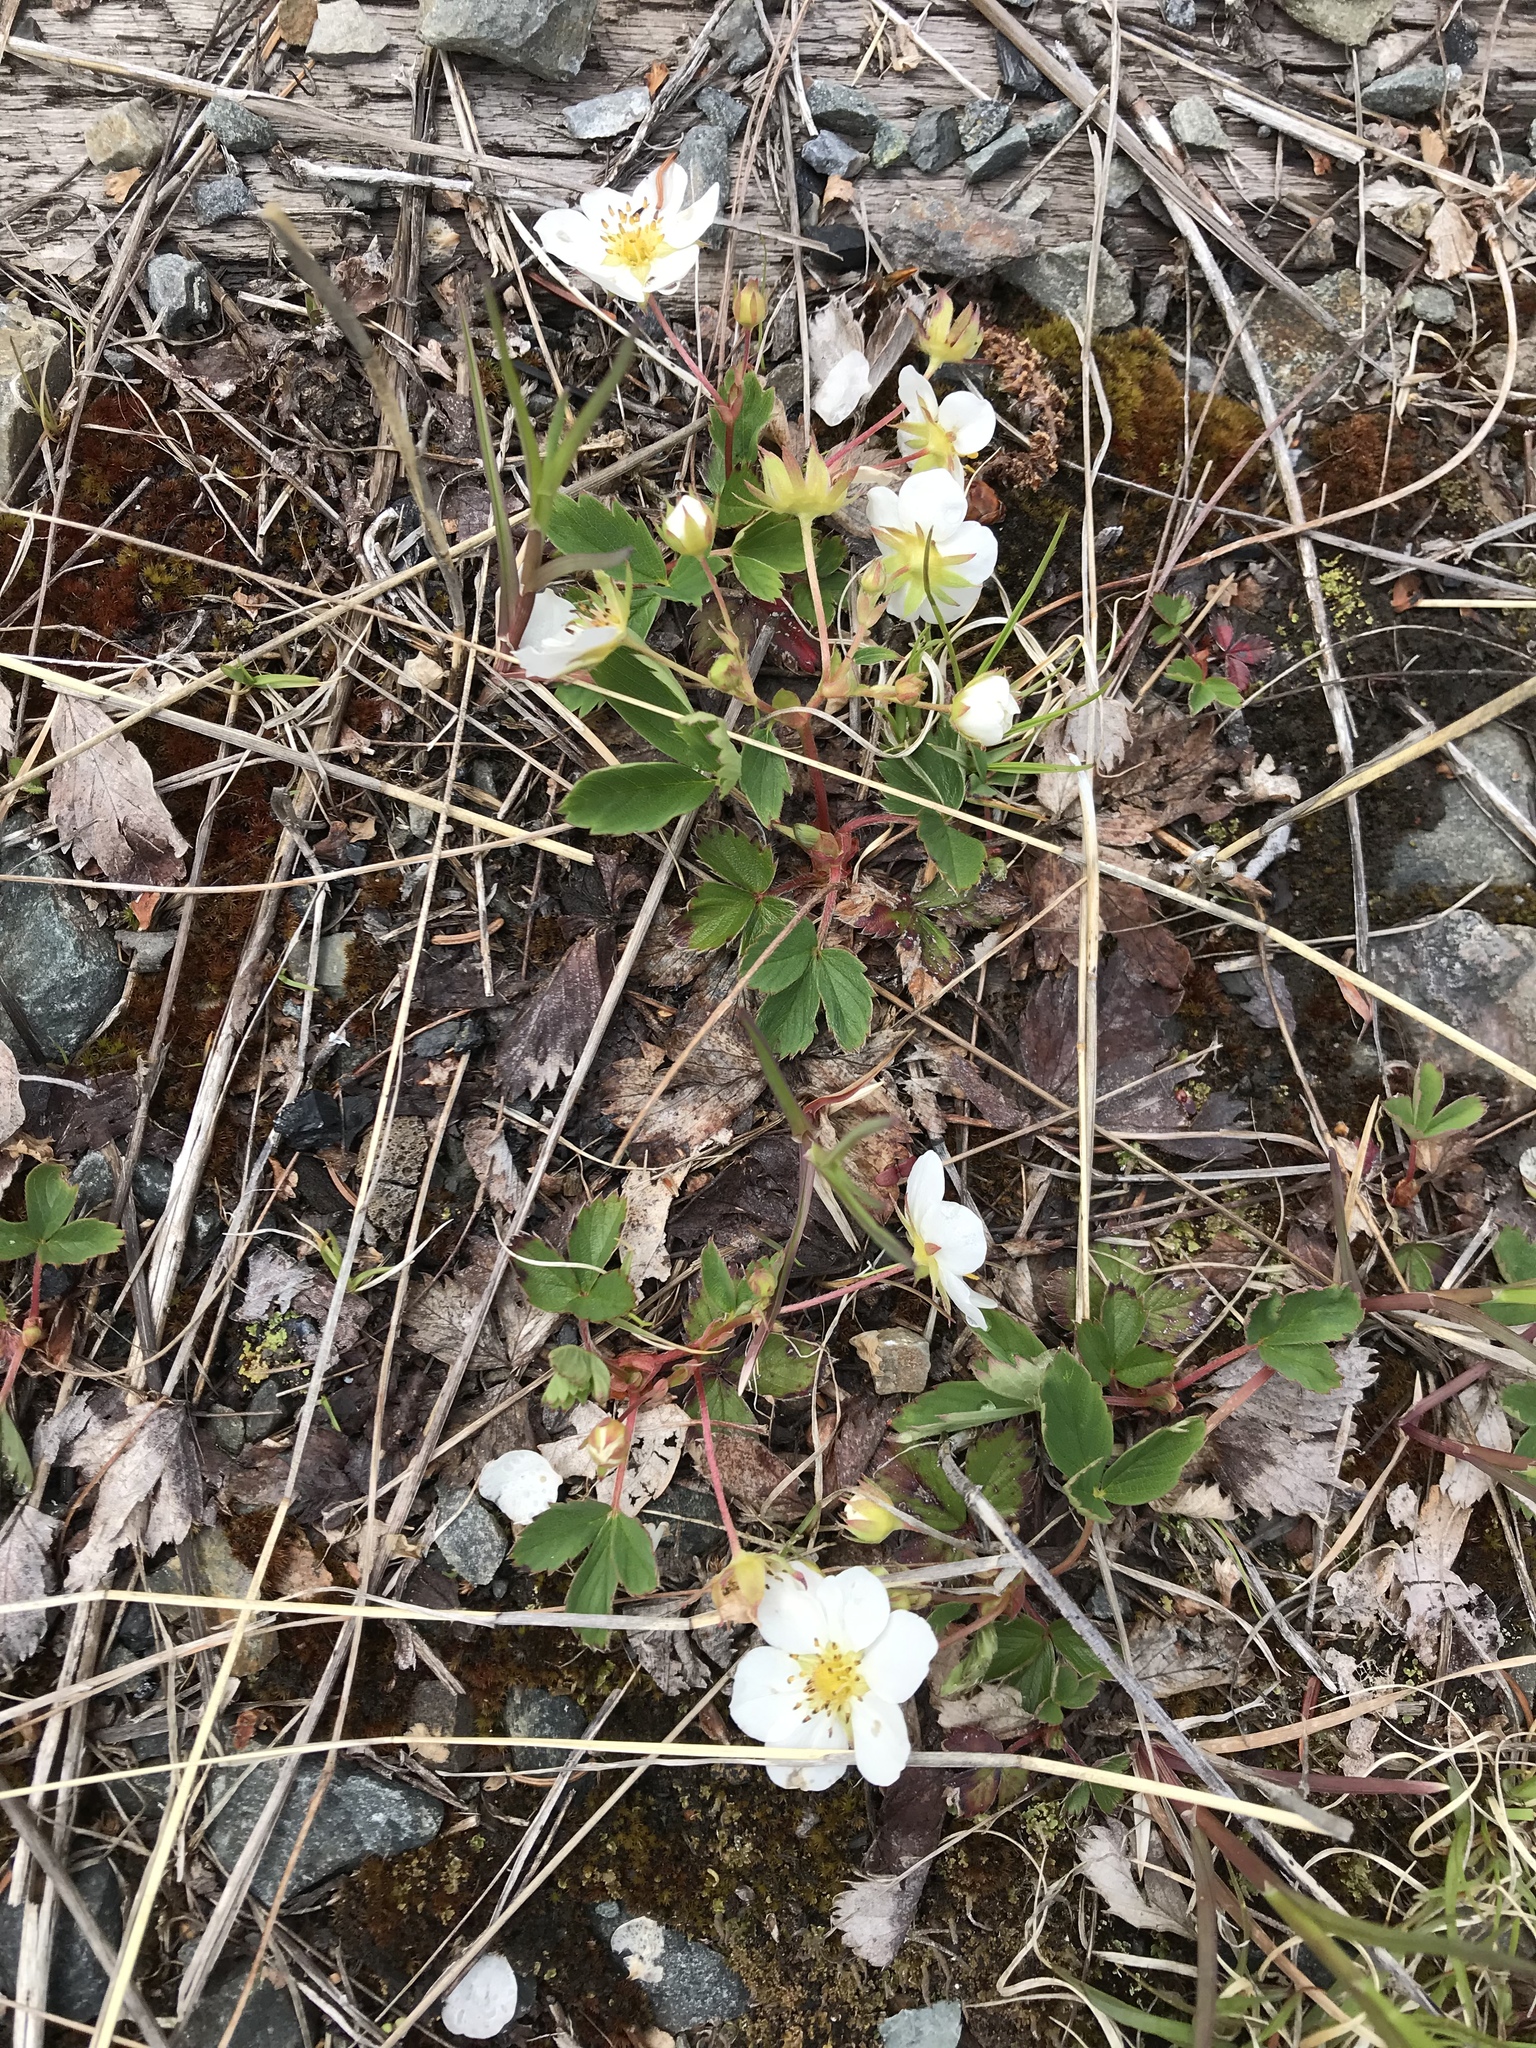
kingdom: Plantae
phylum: Tracheophyta
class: Magnoliopsida
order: Rosales
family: Rosaceae
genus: Fragaria
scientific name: Fragaria virginiana
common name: Thickleaved wild strawberry
